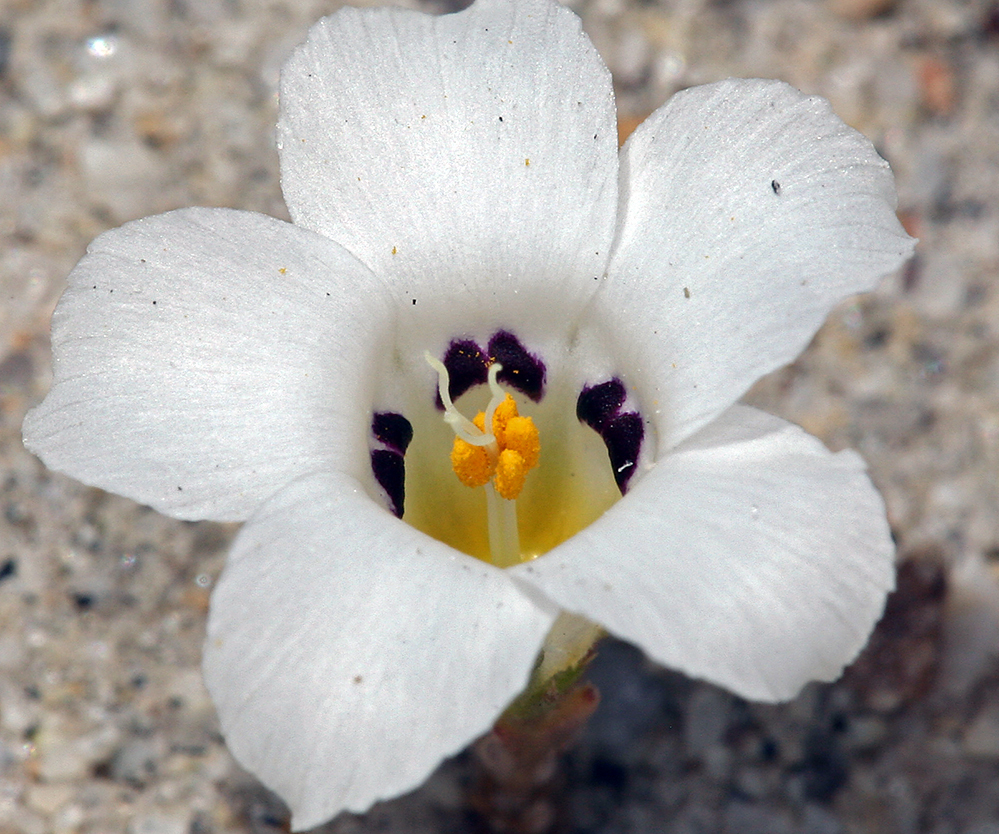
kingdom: Plantae
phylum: Tracheophyta
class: Magnoliopsida
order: Ericales
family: Polemoniaceae
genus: Linanthus
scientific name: Linanthus parryae
